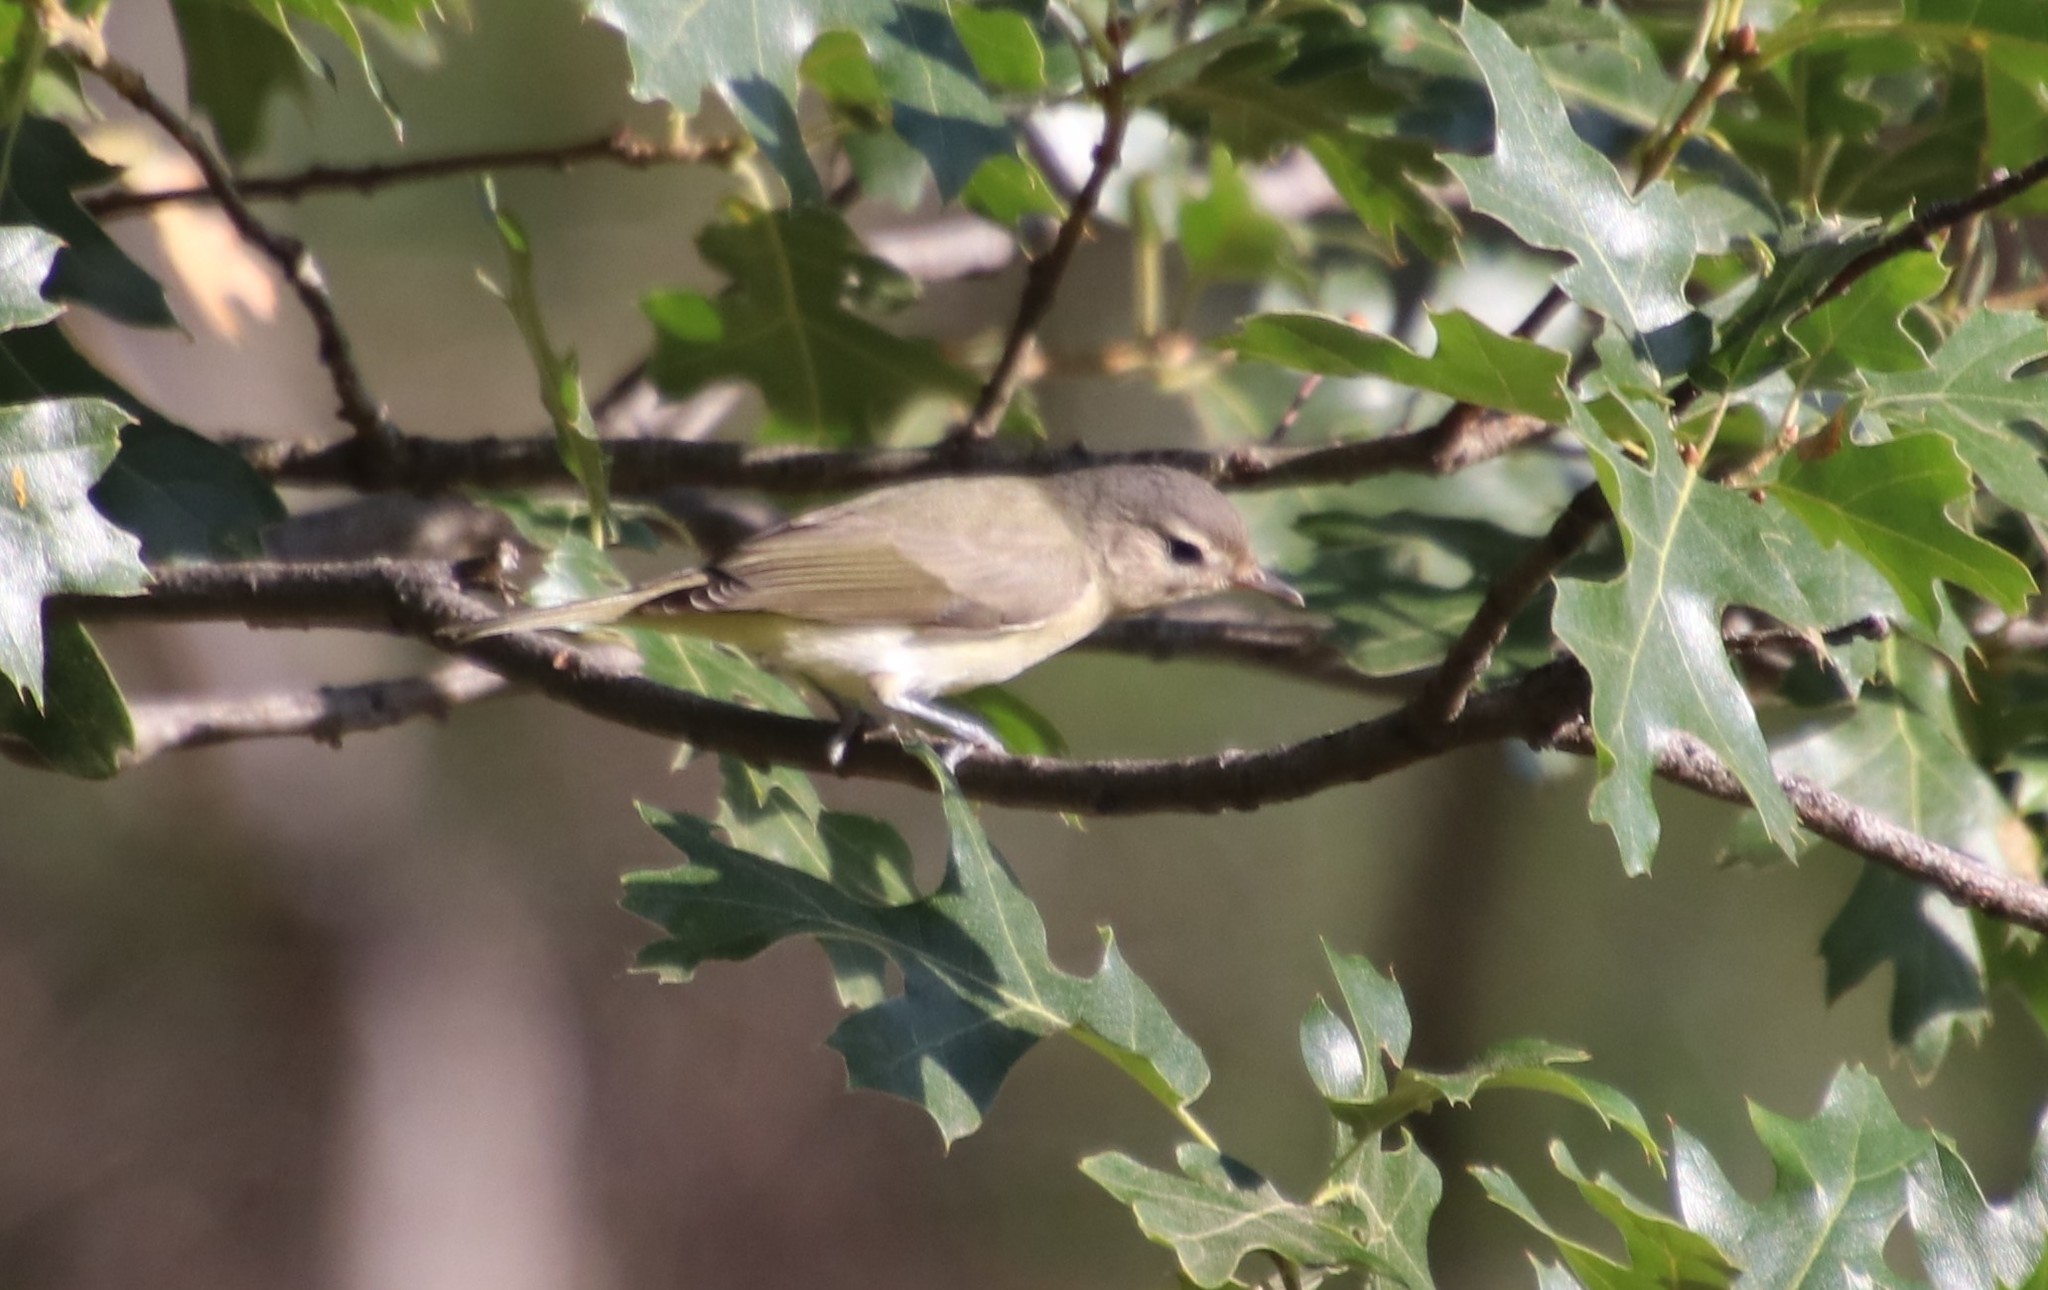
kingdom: Animalia
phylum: Chordata
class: Aves
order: Passeriformes
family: Vireonidae
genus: Vireo
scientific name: Vireo gilvus
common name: Warbling vireo
